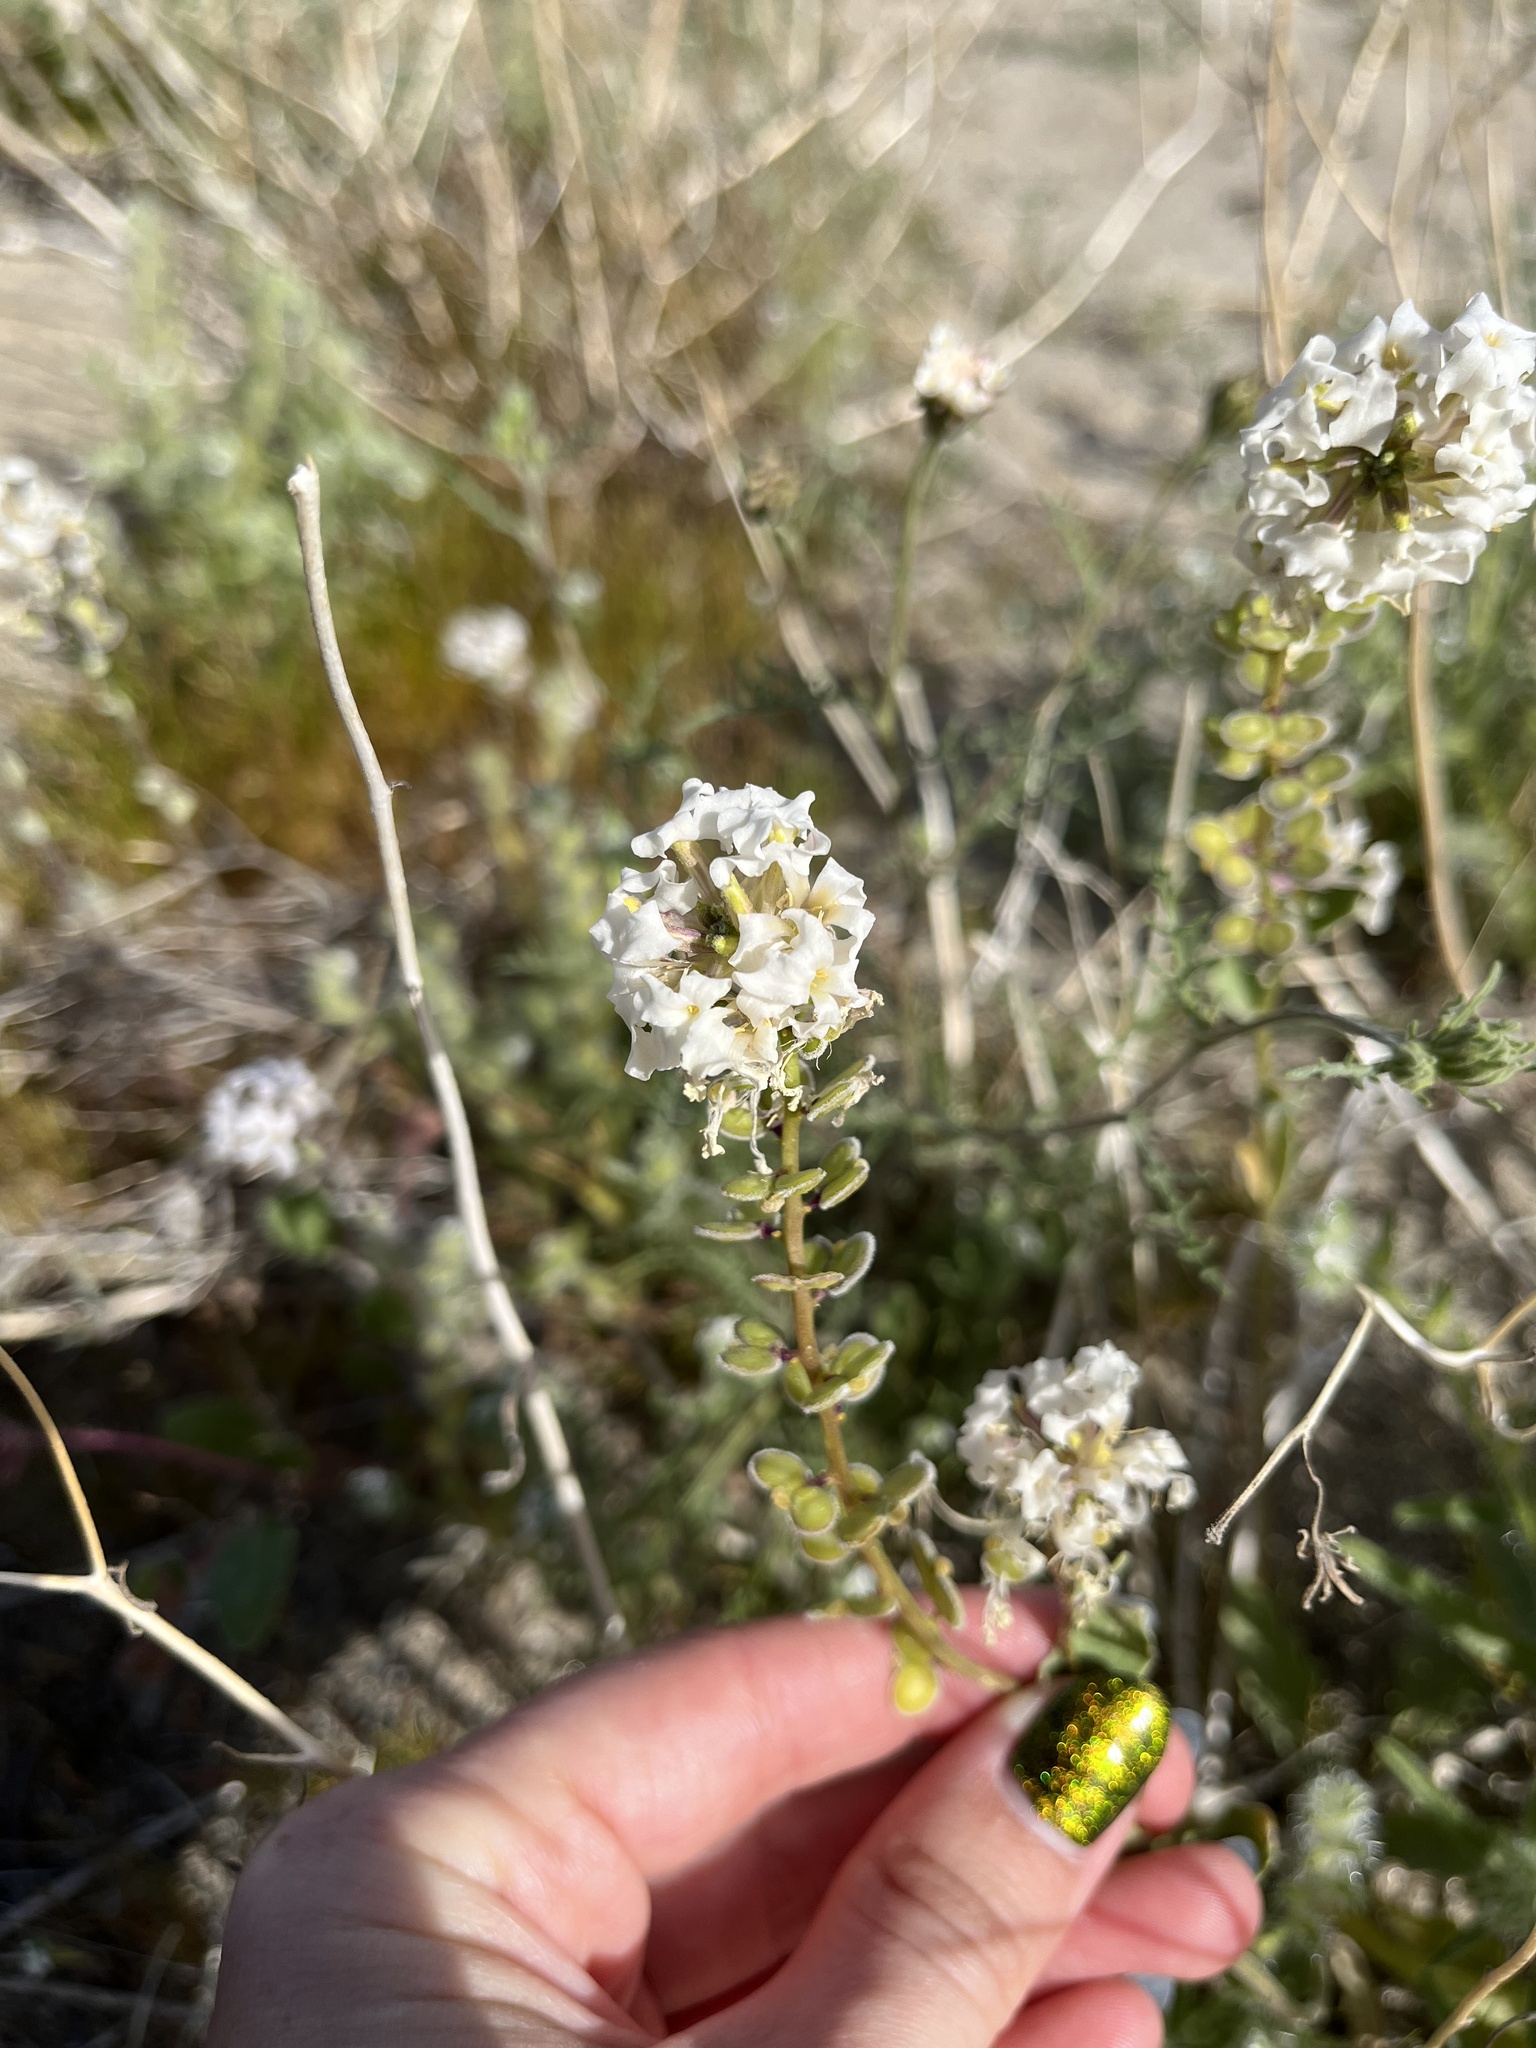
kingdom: Plantae
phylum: Tracheophyta
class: Magnoliopsida
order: Brassicales
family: Brassicaceae
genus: Dithyrea
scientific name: Dithyrea californica
